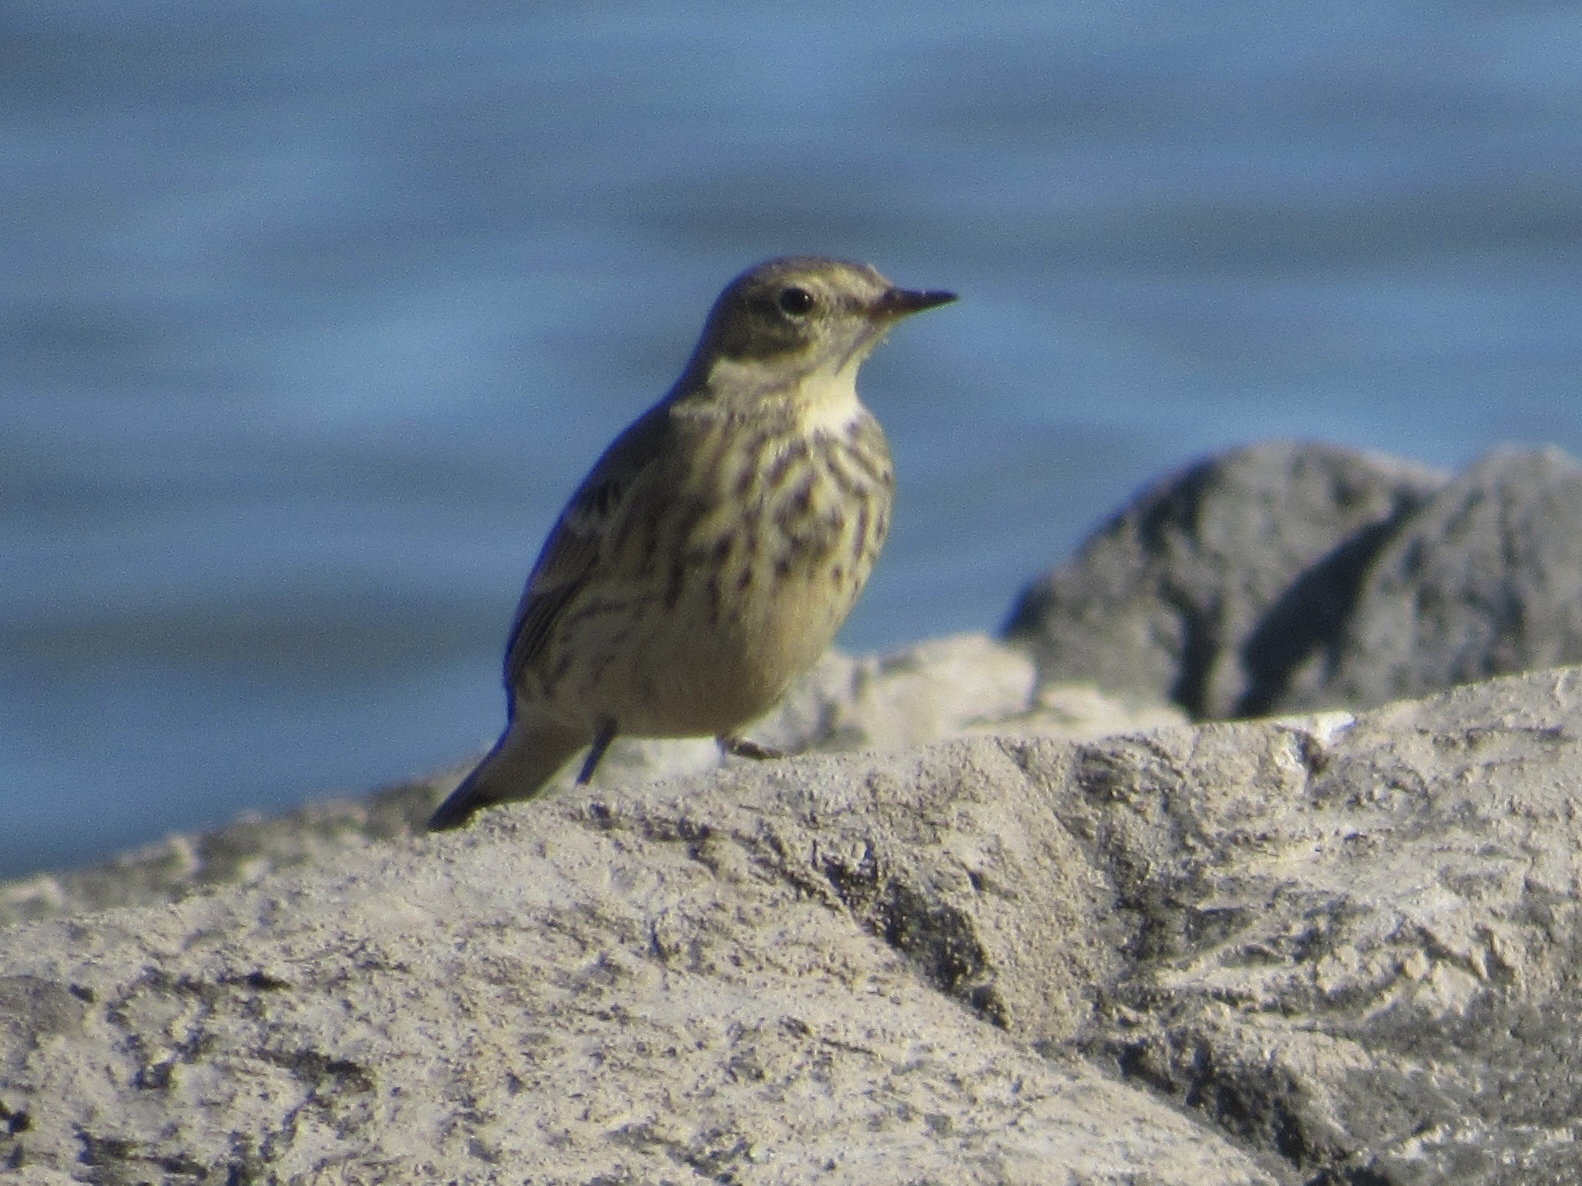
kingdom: Animalia
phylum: Chordata
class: Aves
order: Passeriformes
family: Motacillidae
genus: Anthus
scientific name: Anthus rubescens
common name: Buff-bellied pipit
